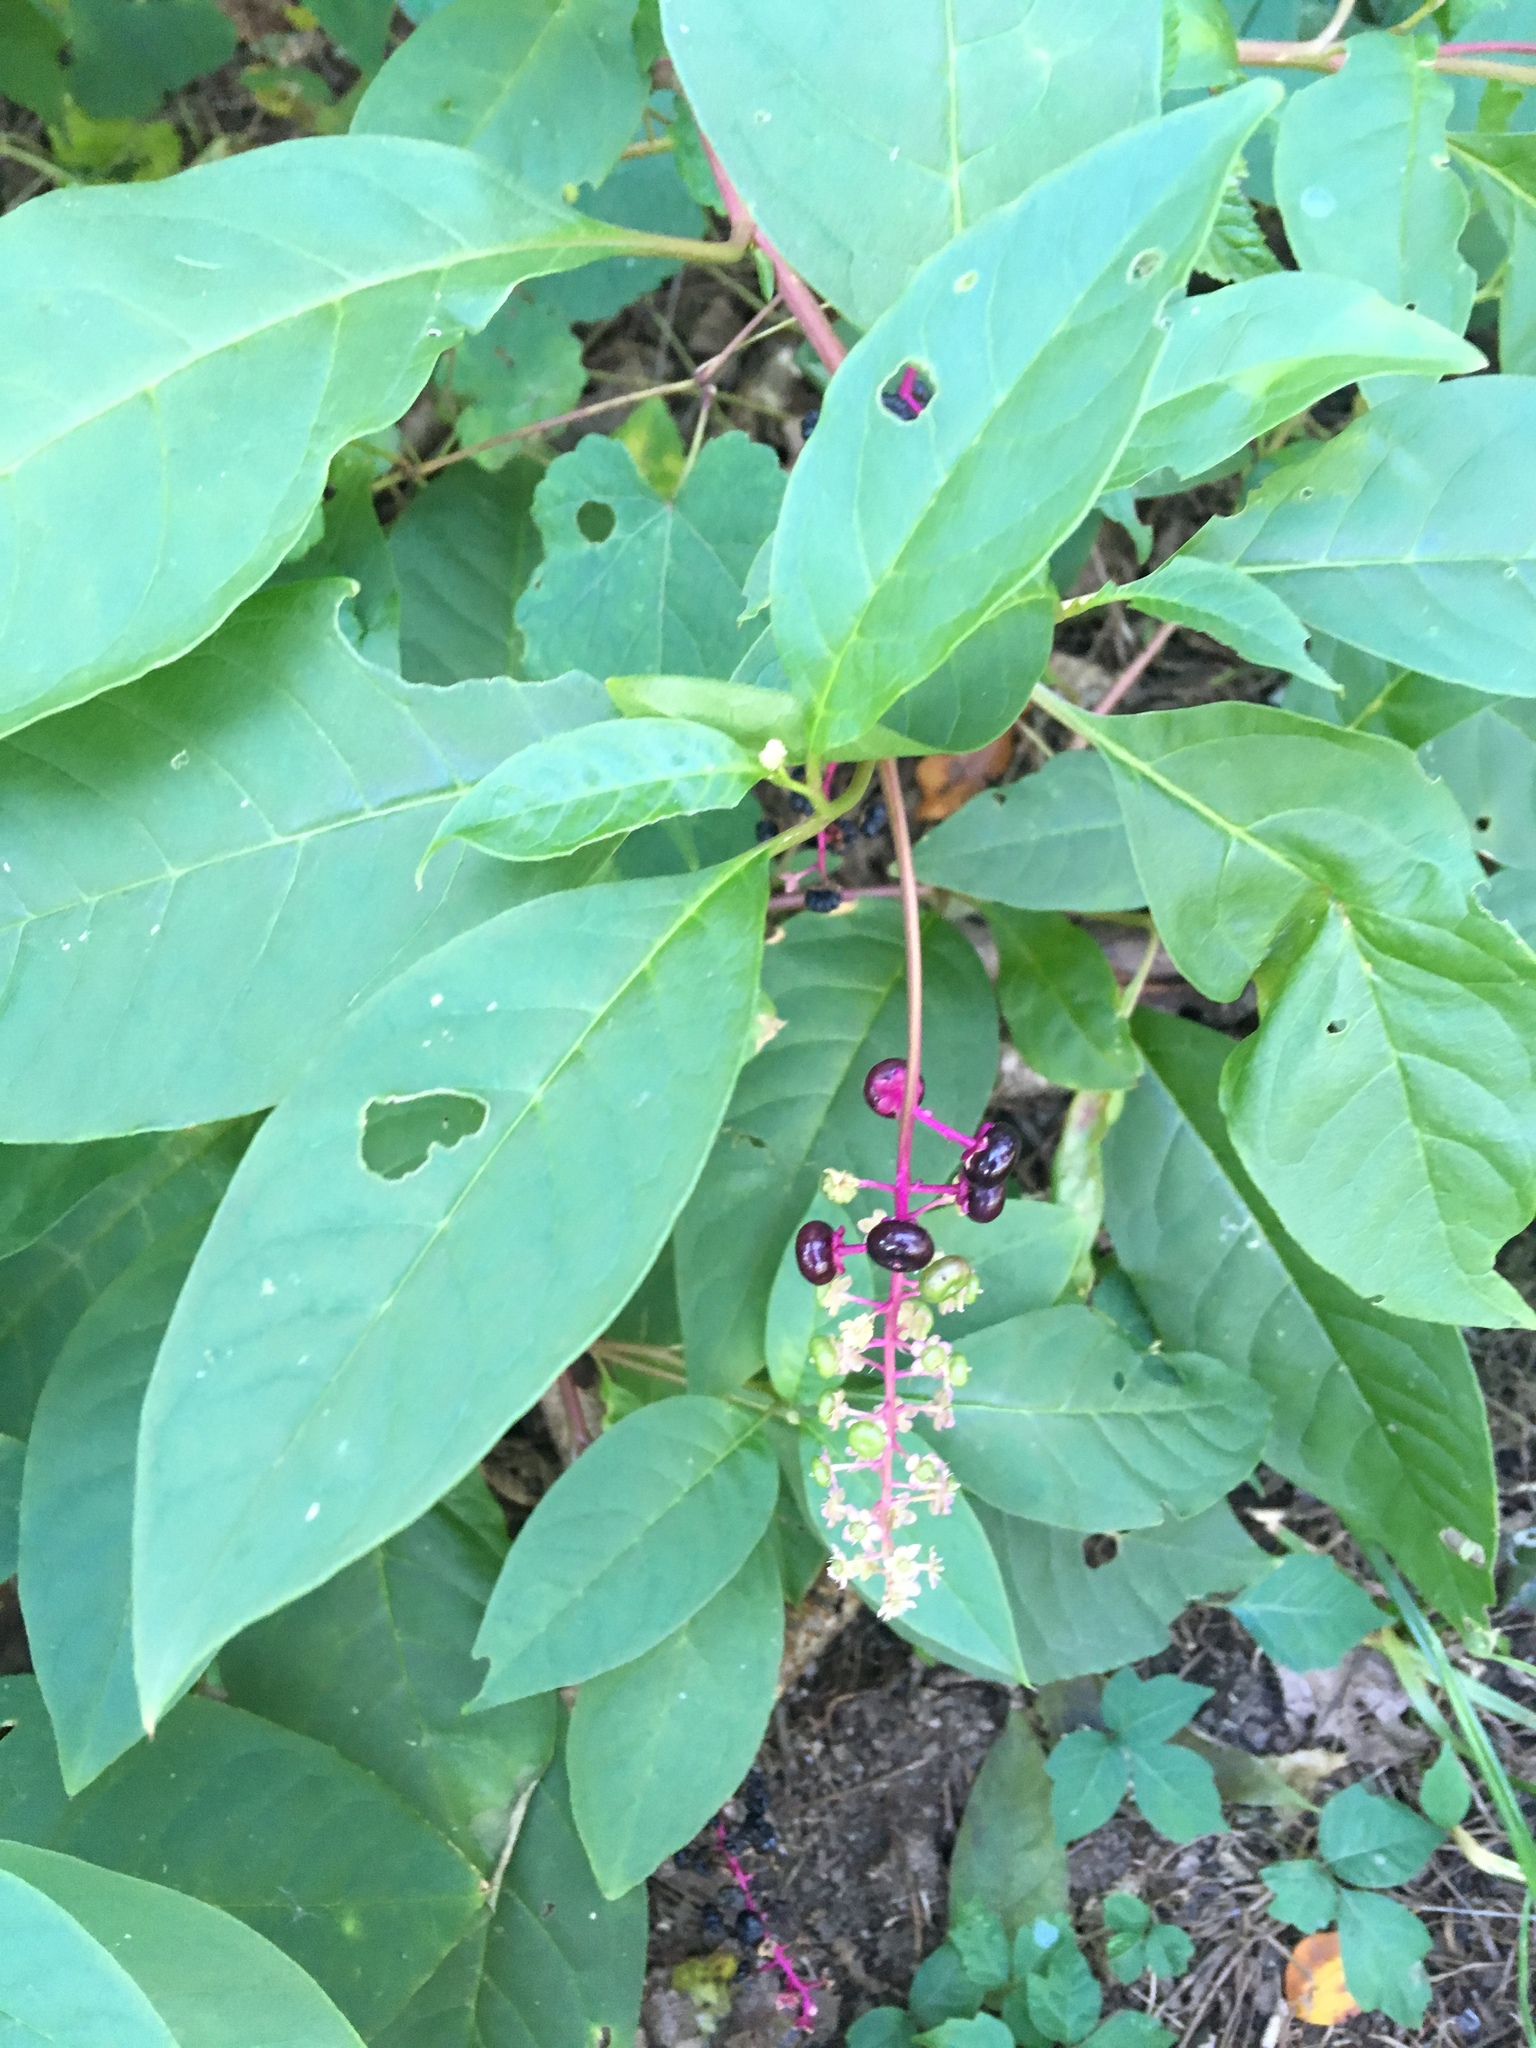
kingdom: Plantae
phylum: Tracheophyta
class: Magnoliopsida
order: Caryophyllales
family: Phytolaccaceae
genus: Phytolacca
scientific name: Phytolacca americana
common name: American pokeweed
